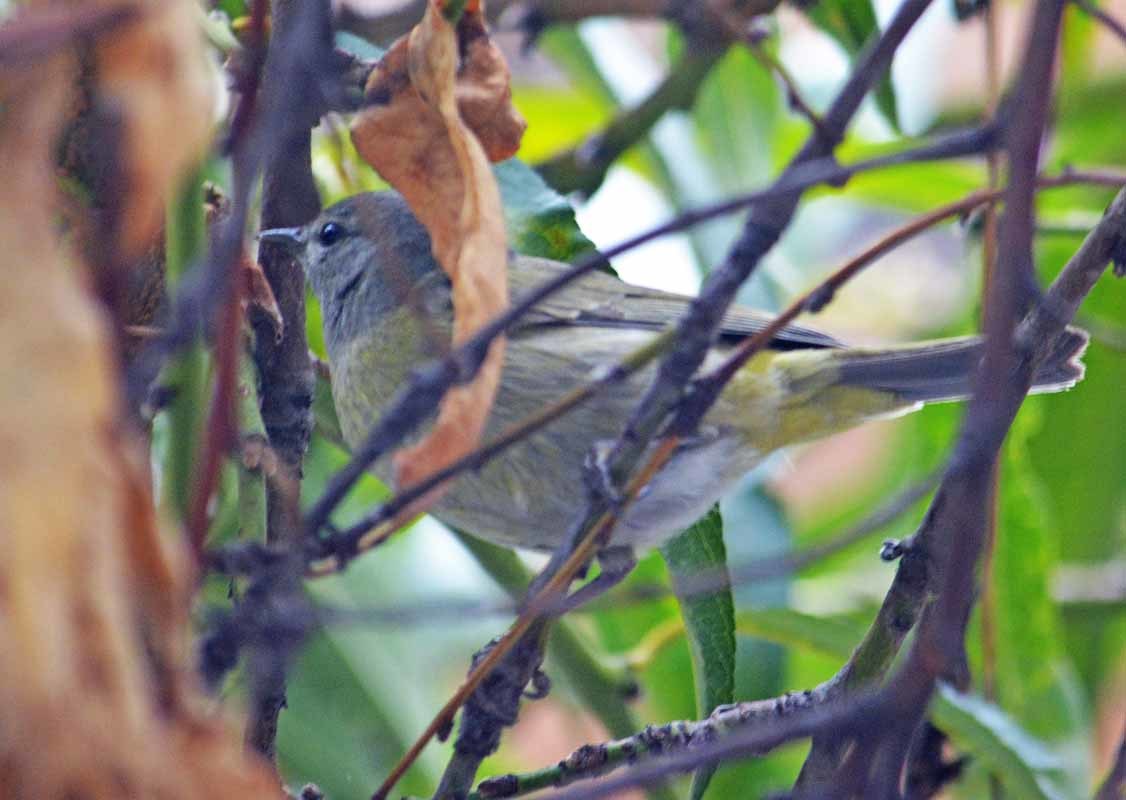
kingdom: Animalia
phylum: Chordata
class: Aves
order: Passeriformes
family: Parulidae
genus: Leiothlypis
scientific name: Leiothlypis celata
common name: Orange-crowned warbler
